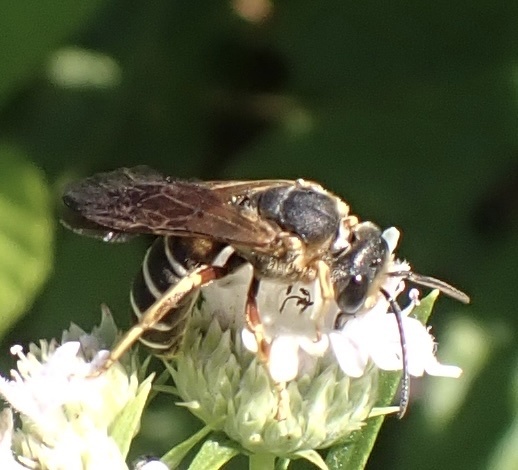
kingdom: Animalia
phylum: Arthropoda
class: Insecta
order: Hymenoptera
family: Halictidae
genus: Halictus
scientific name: Halictus parallelus
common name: Parallel-striped sweat bee
